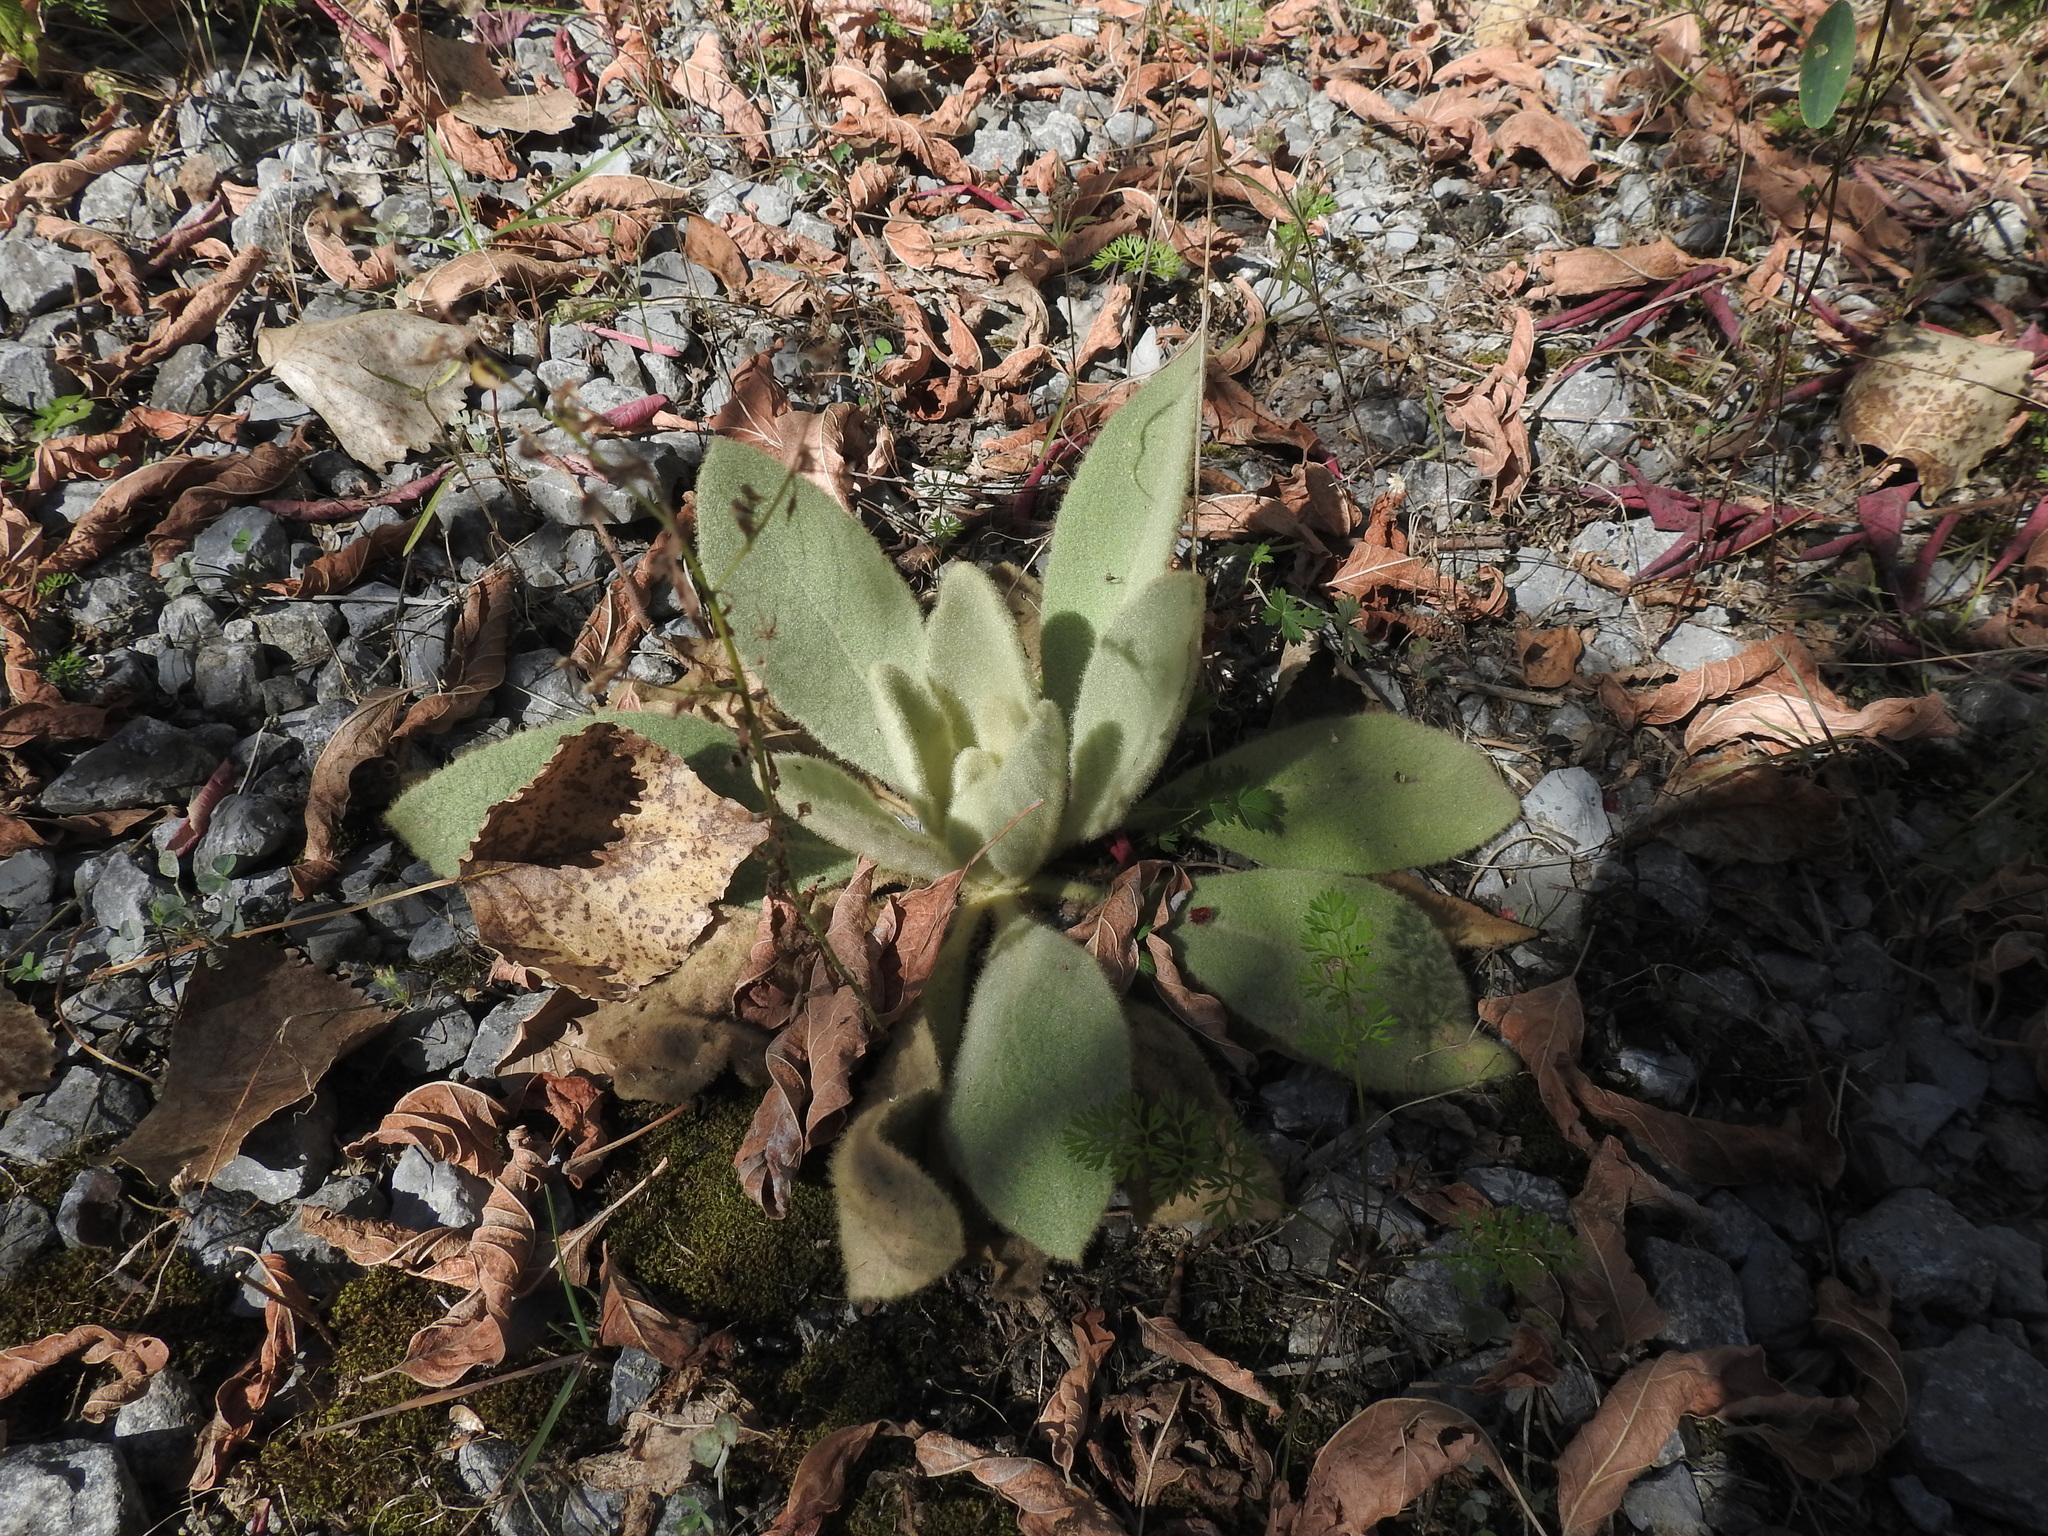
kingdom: Plantae
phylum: Tracheophyta
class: Magnoliopsida
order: Lamiales
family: Scrophulariaceae
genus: Verbascum
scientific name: Verbascum thapsus
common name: Common mullein
